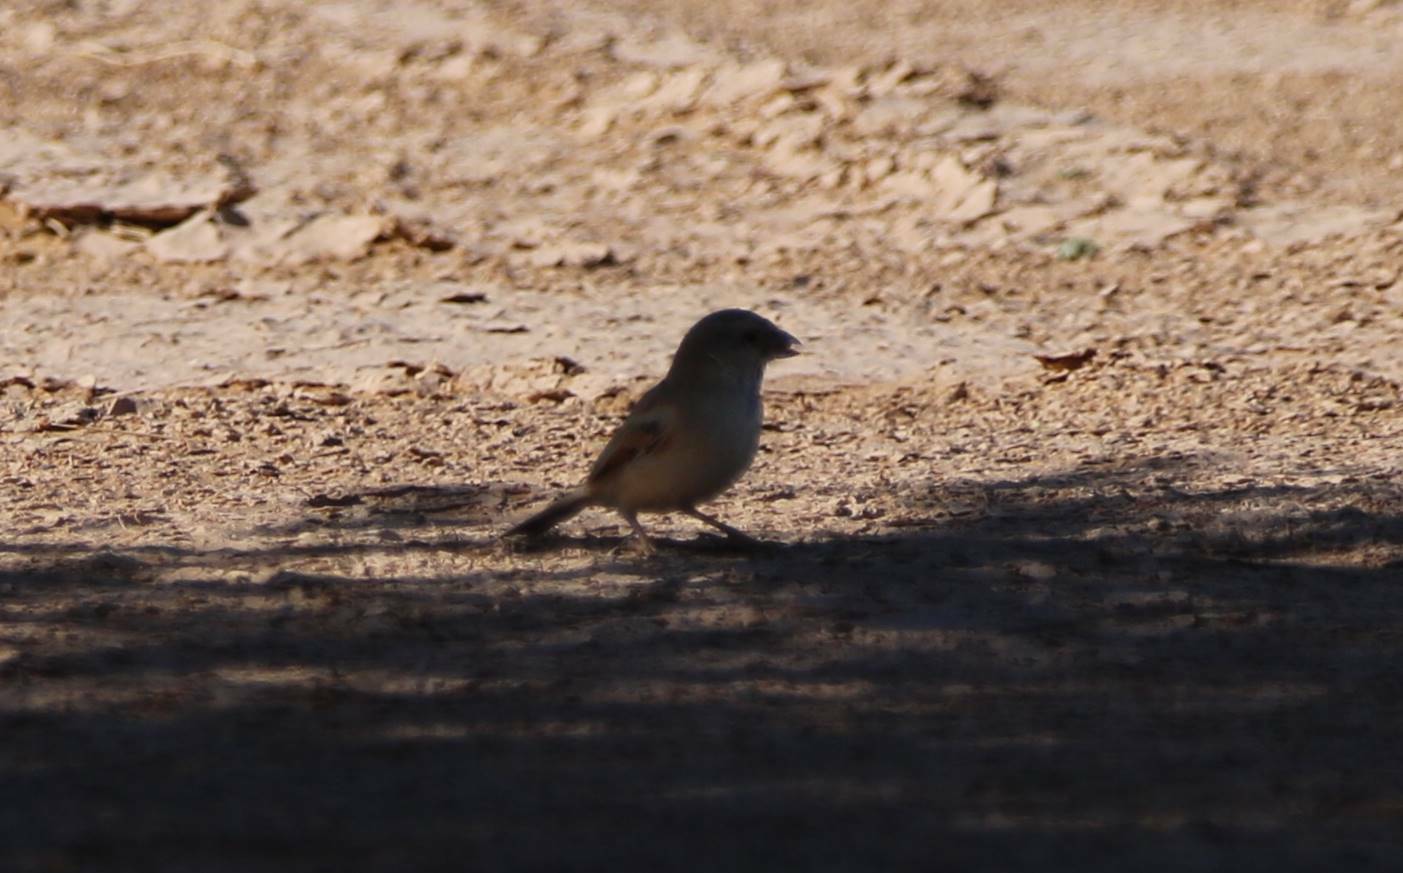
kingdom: Animalia
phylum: Chordata
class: Aves
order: Passeriformes
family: Passeridae
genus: Passer
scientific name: Passer simplex
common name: Desert sparrow
